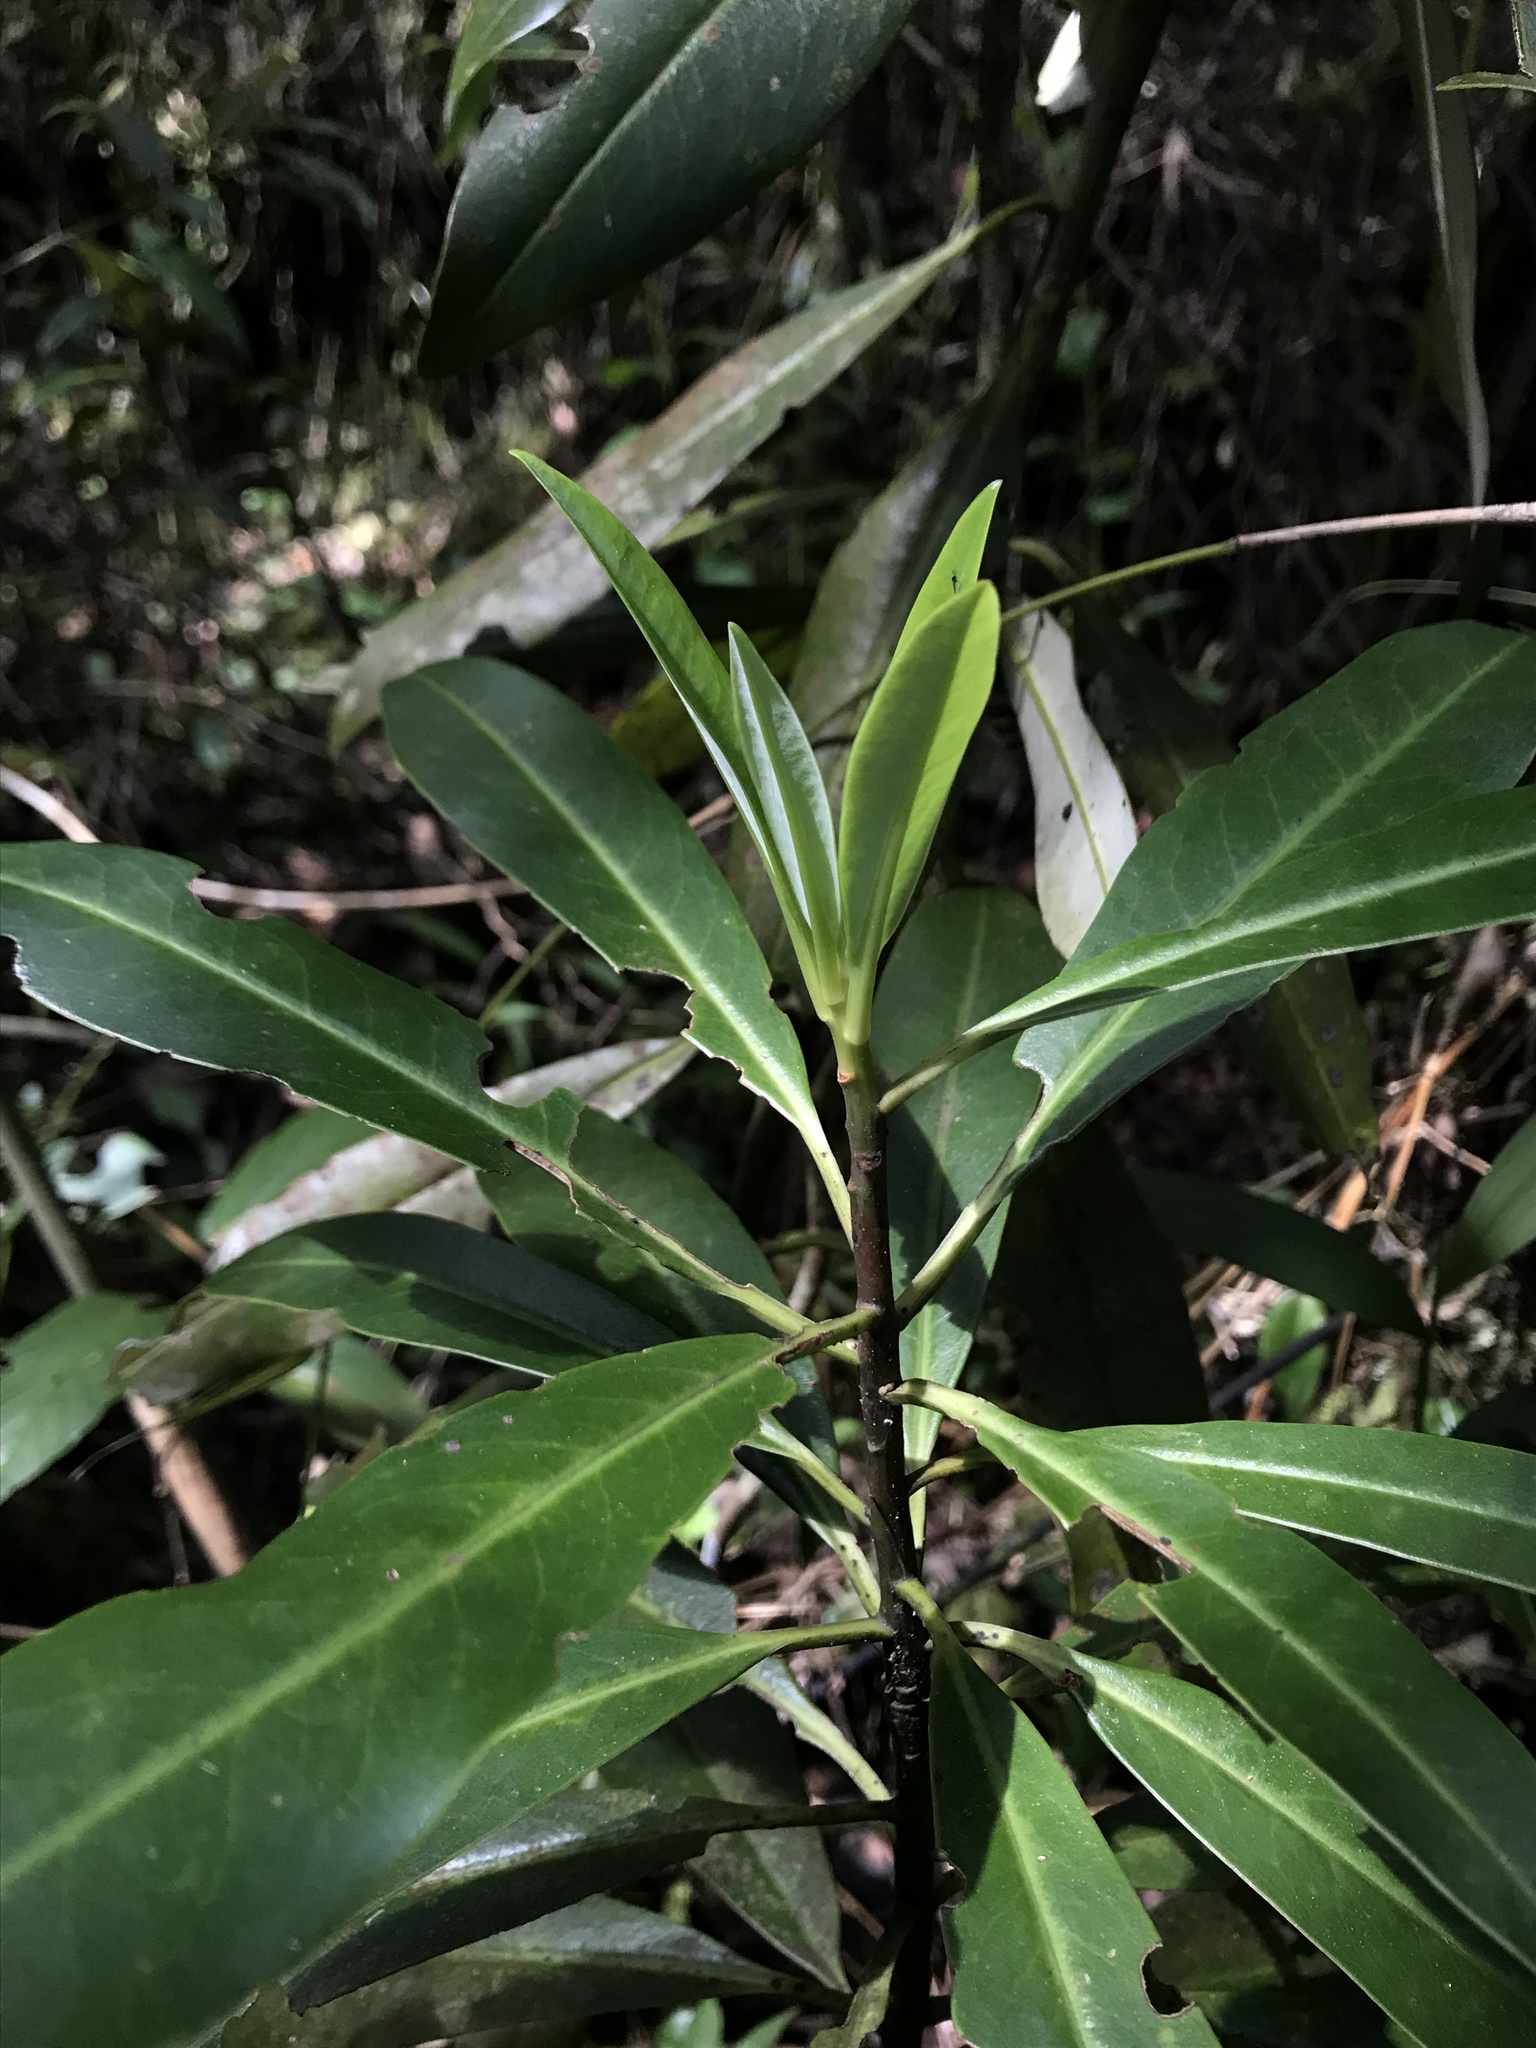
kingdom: Plantae
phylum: Tracheophyta
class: Magnoliopsida
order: Canellales
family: Winteraceae
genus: Drimys
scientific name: Drimys granadensis
